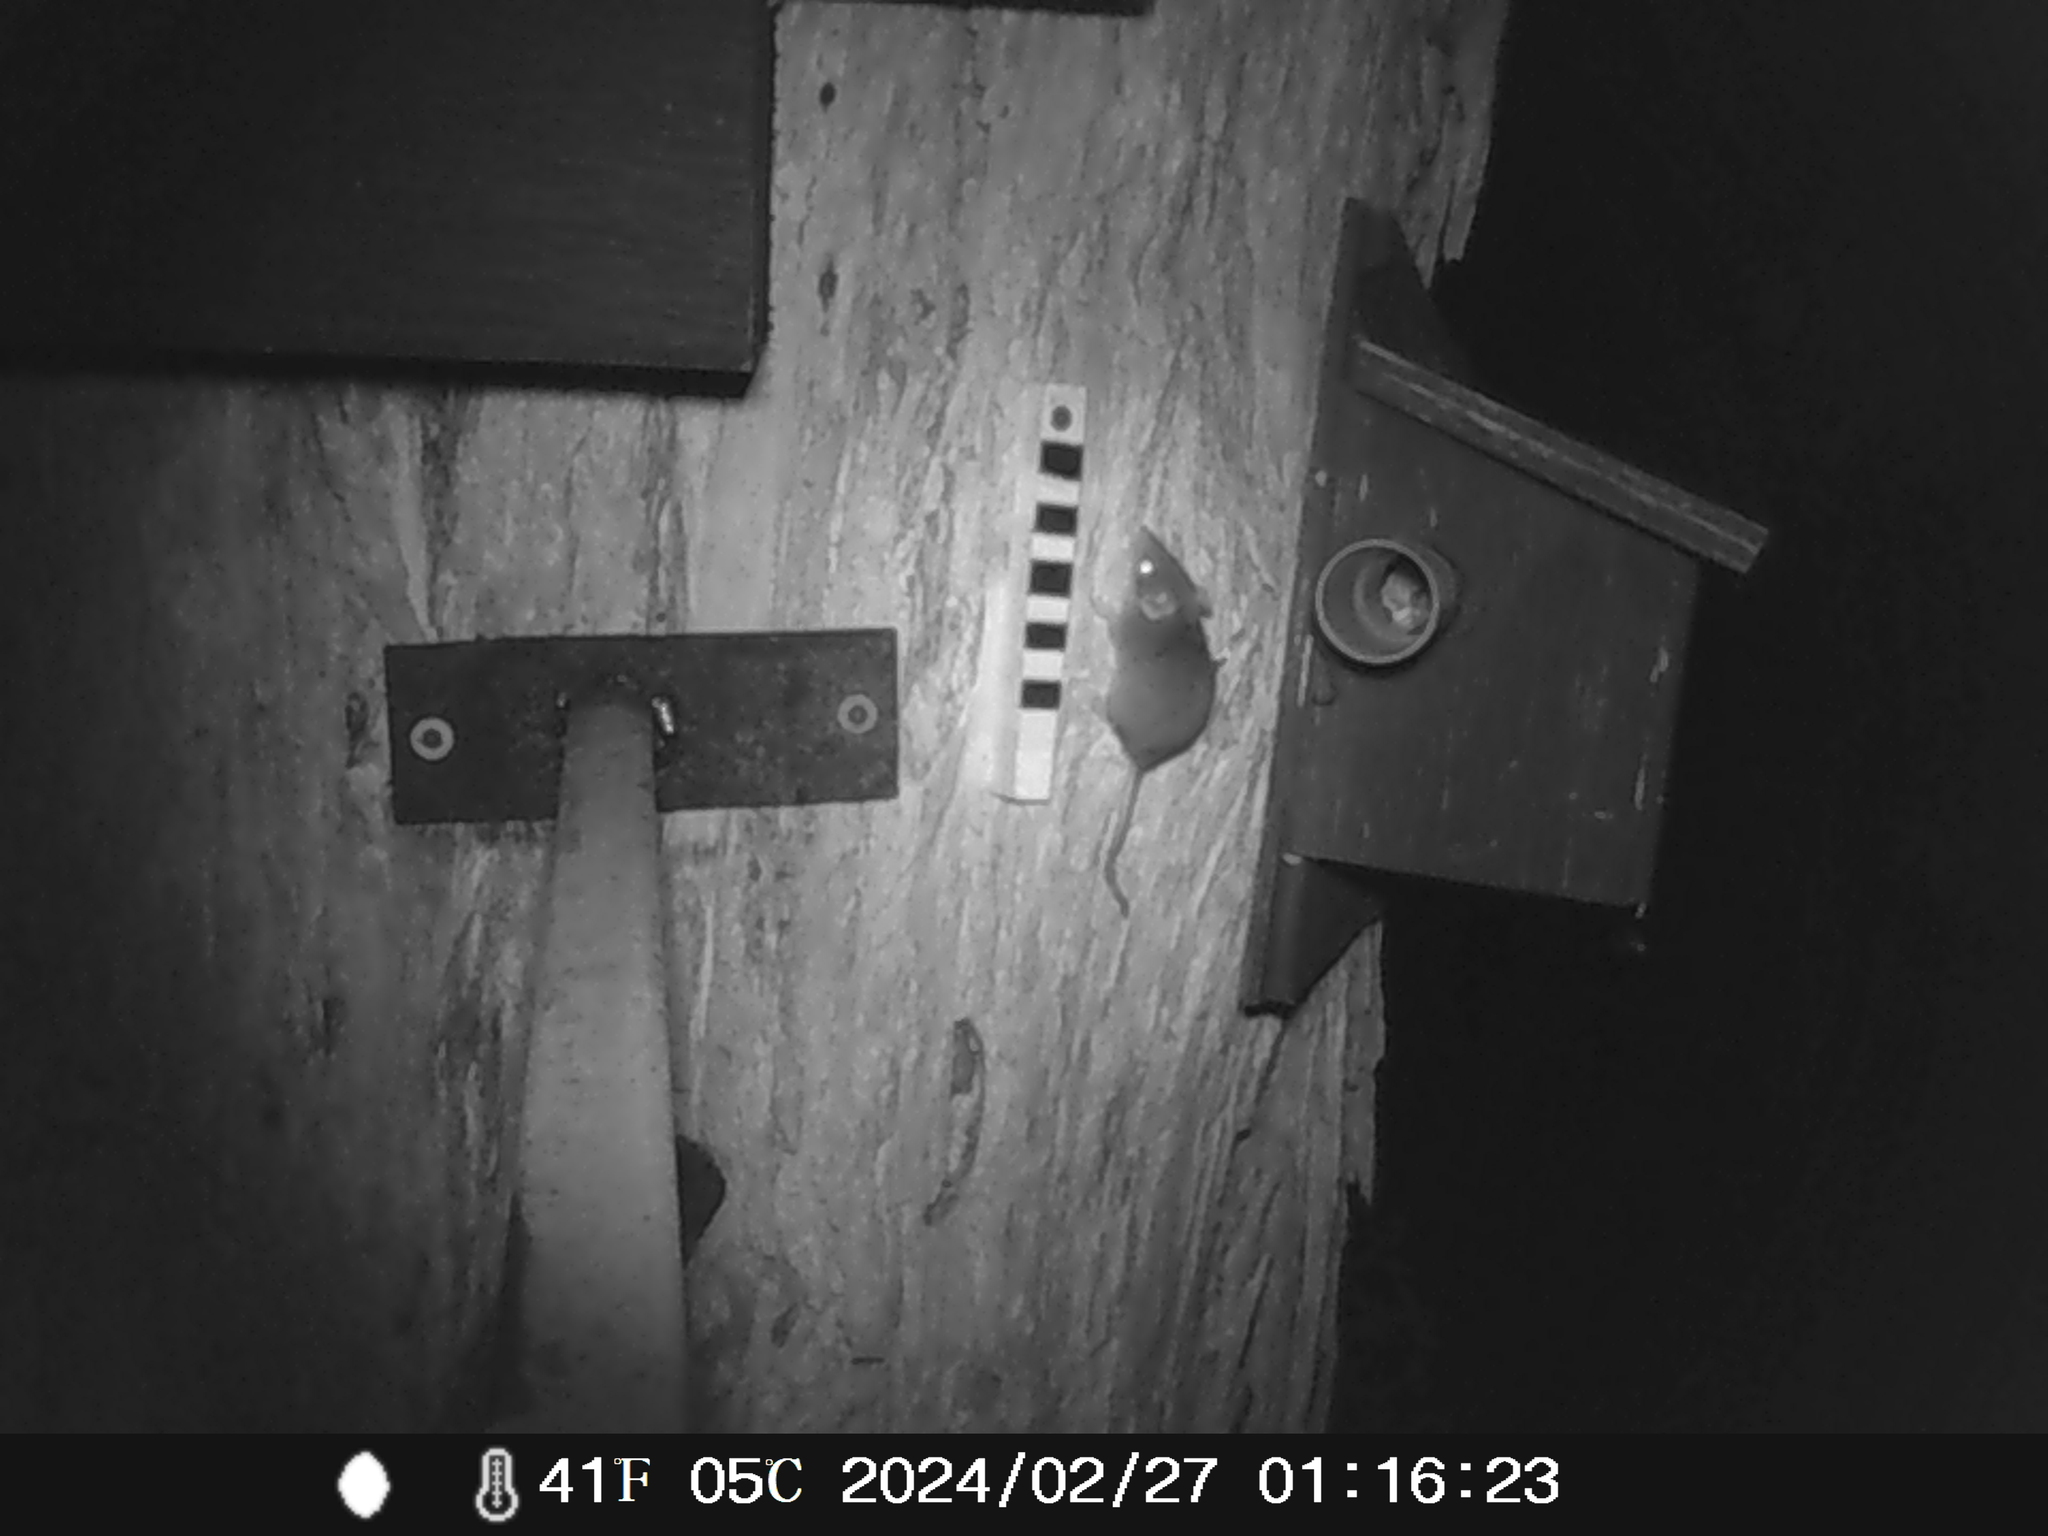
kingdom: Animalia
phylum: Chordata
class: Mammalia
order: Dasyuromorphia
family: Dasyuridae
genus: Antechinus
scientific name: Antechinus agilis
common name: Agile antechinus
